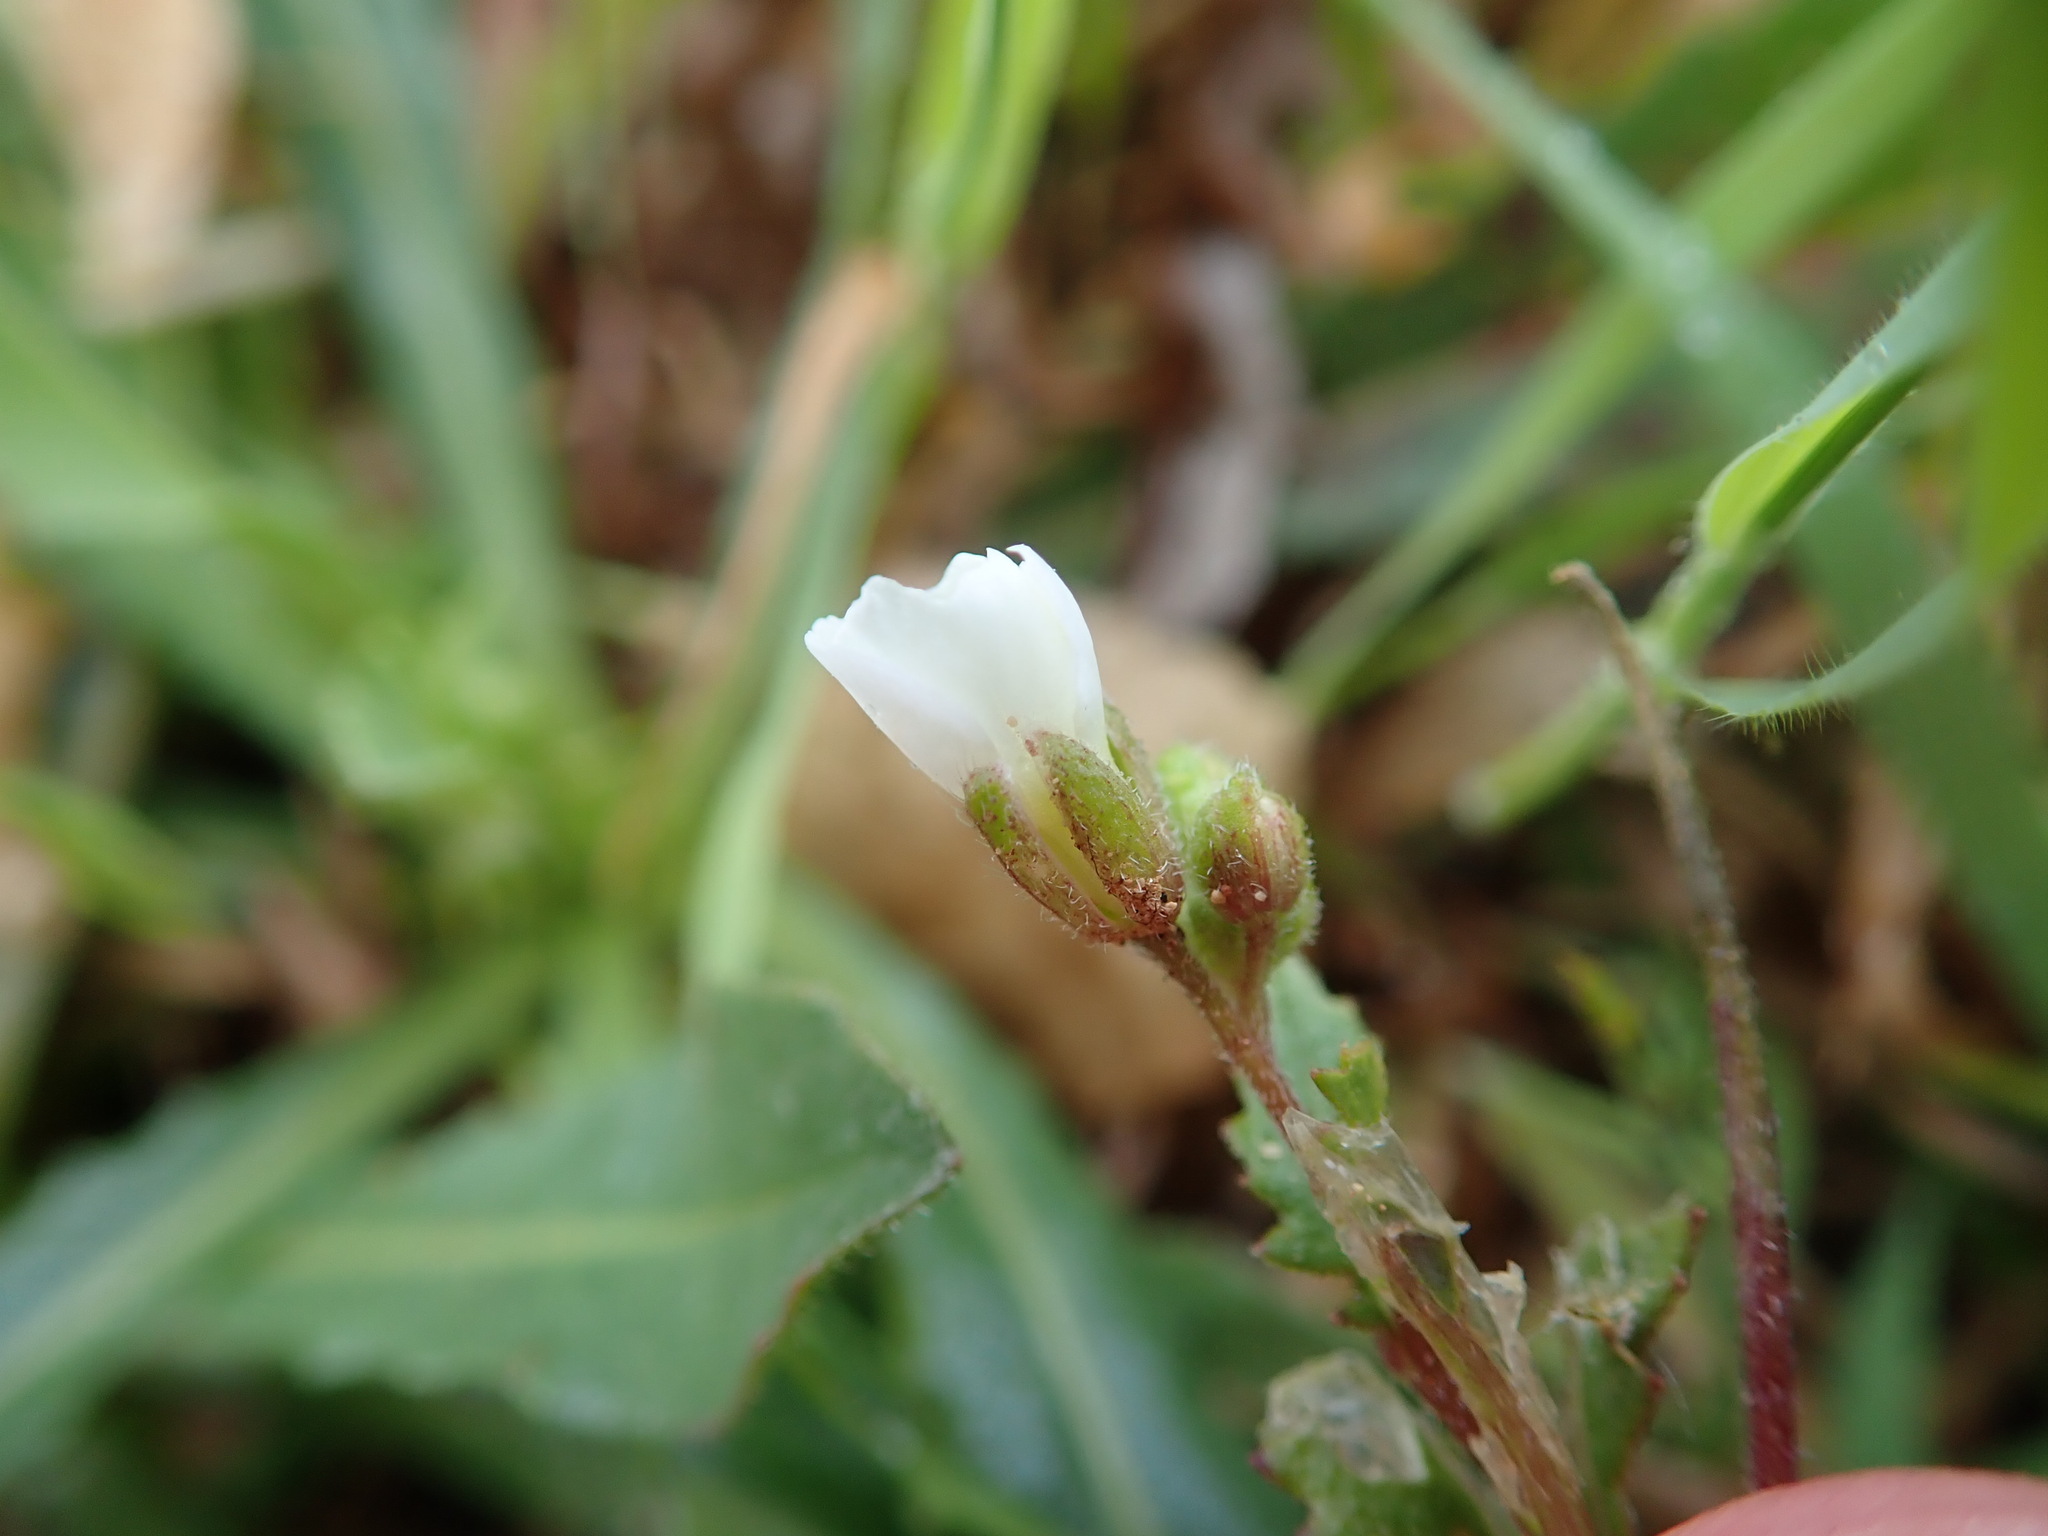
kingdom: Plantae
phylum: Tracheophyta
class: Magnoliopsida
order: Brassicales
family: Brassicaceae
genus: Diplotaxis
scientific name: Diplotaxis erucoides
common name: White rocket
